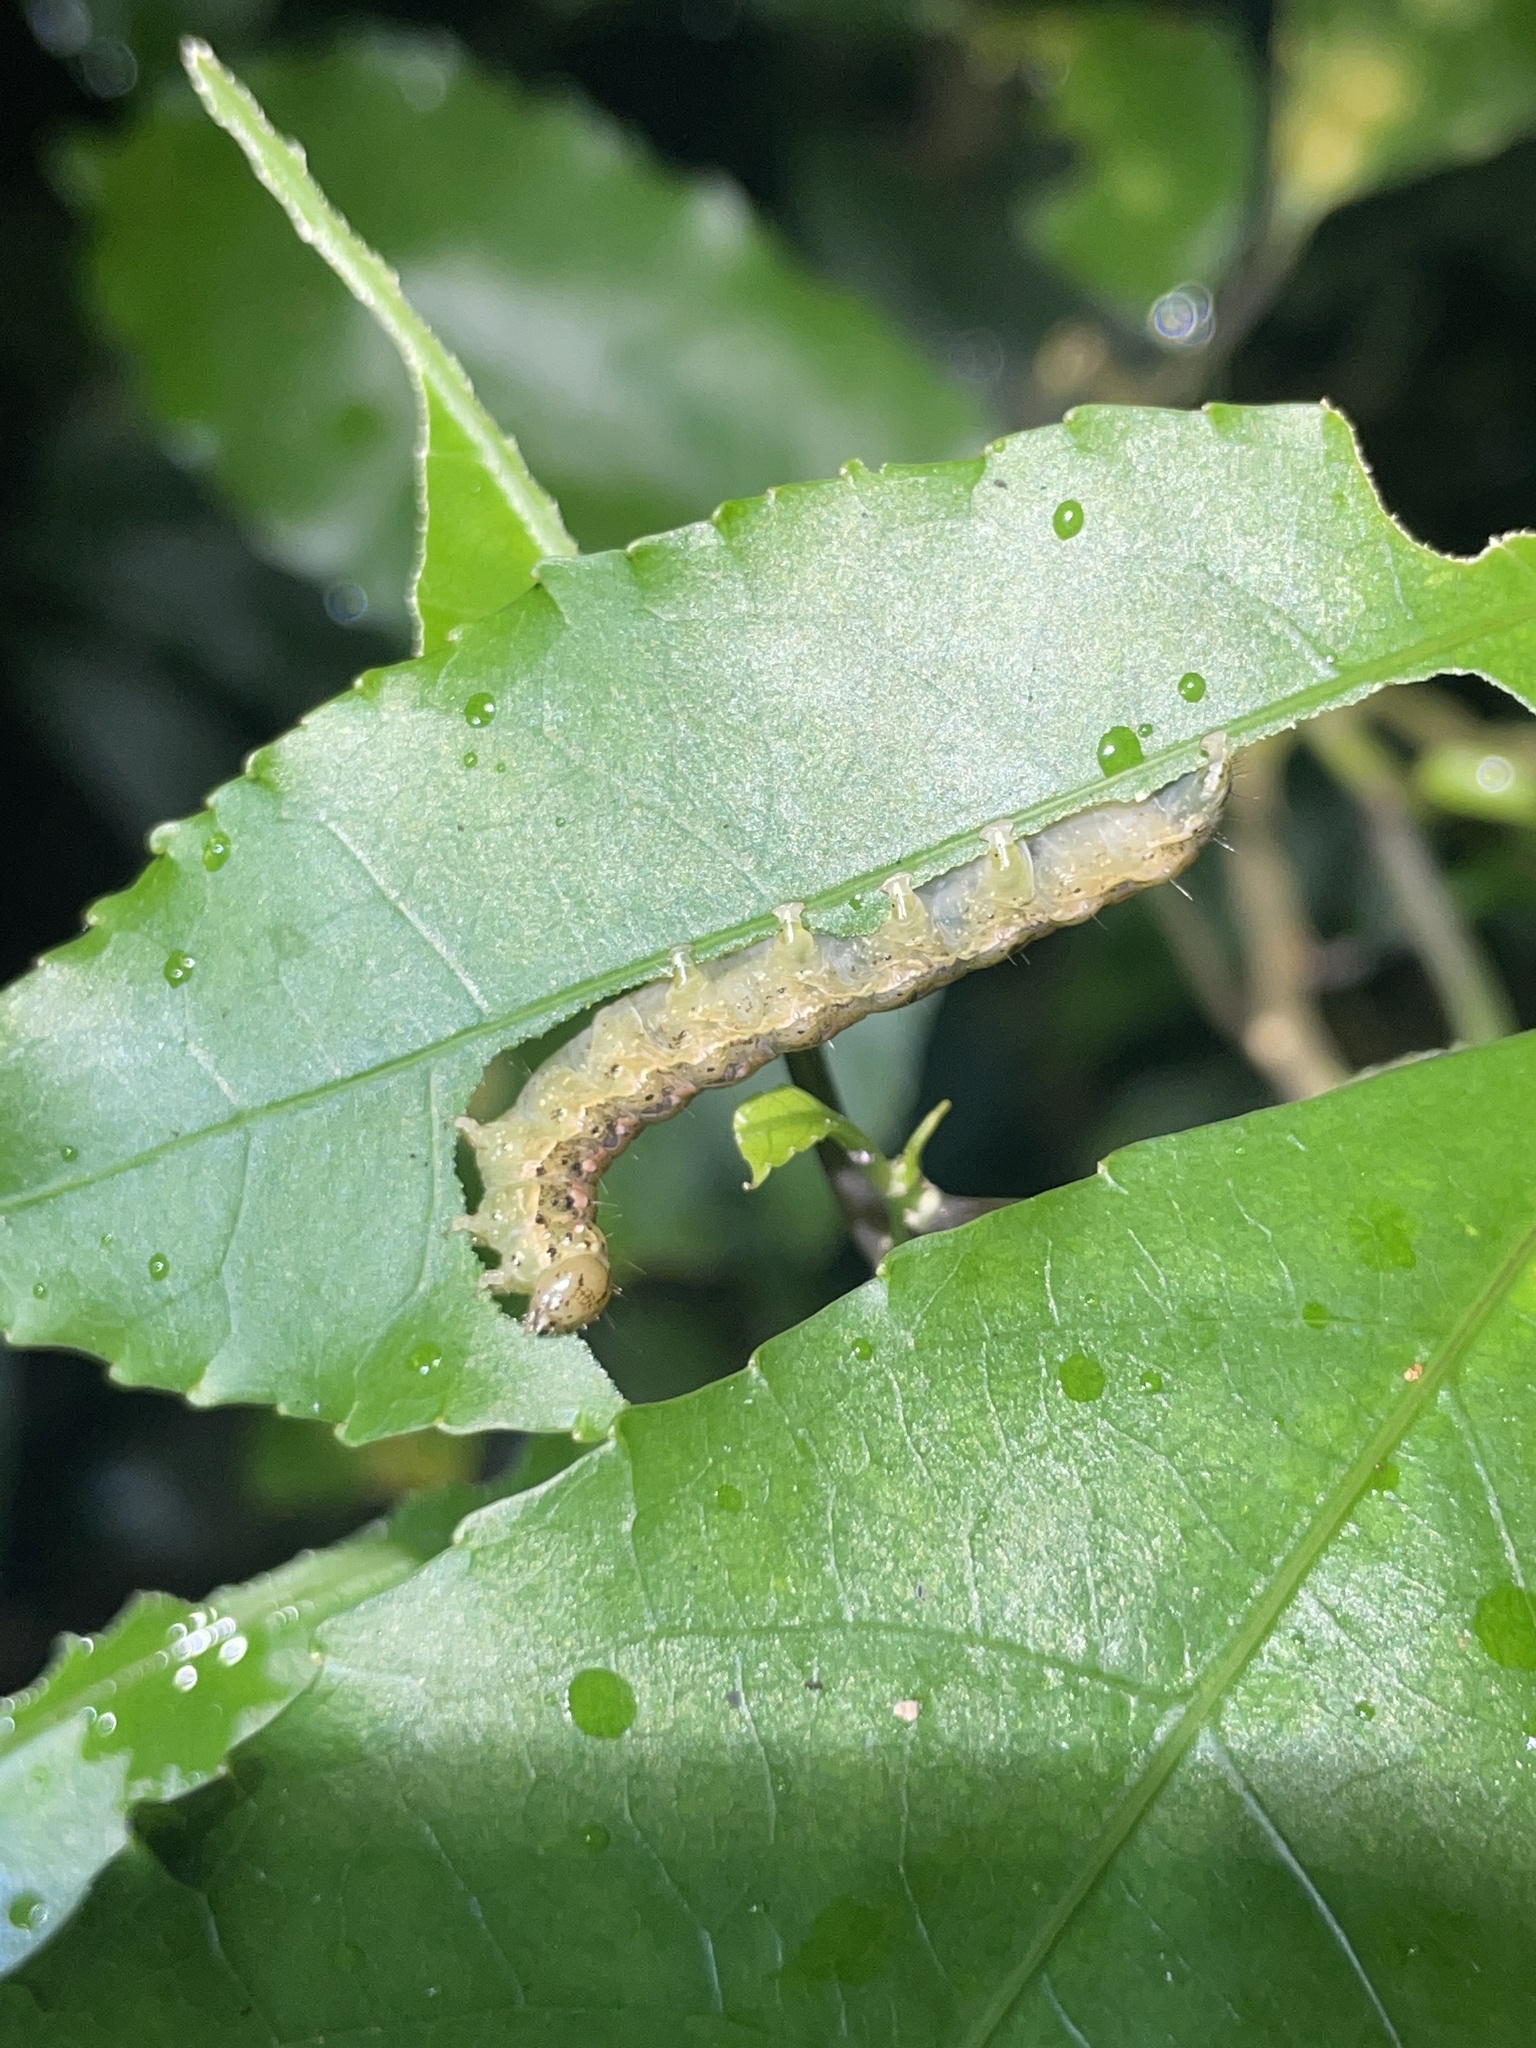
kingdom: Animalia
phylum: Arthropoda
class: Insecta
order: Lepidoptera
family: Noctuidae
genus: Feredayia
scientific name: Feredayia grammosa
